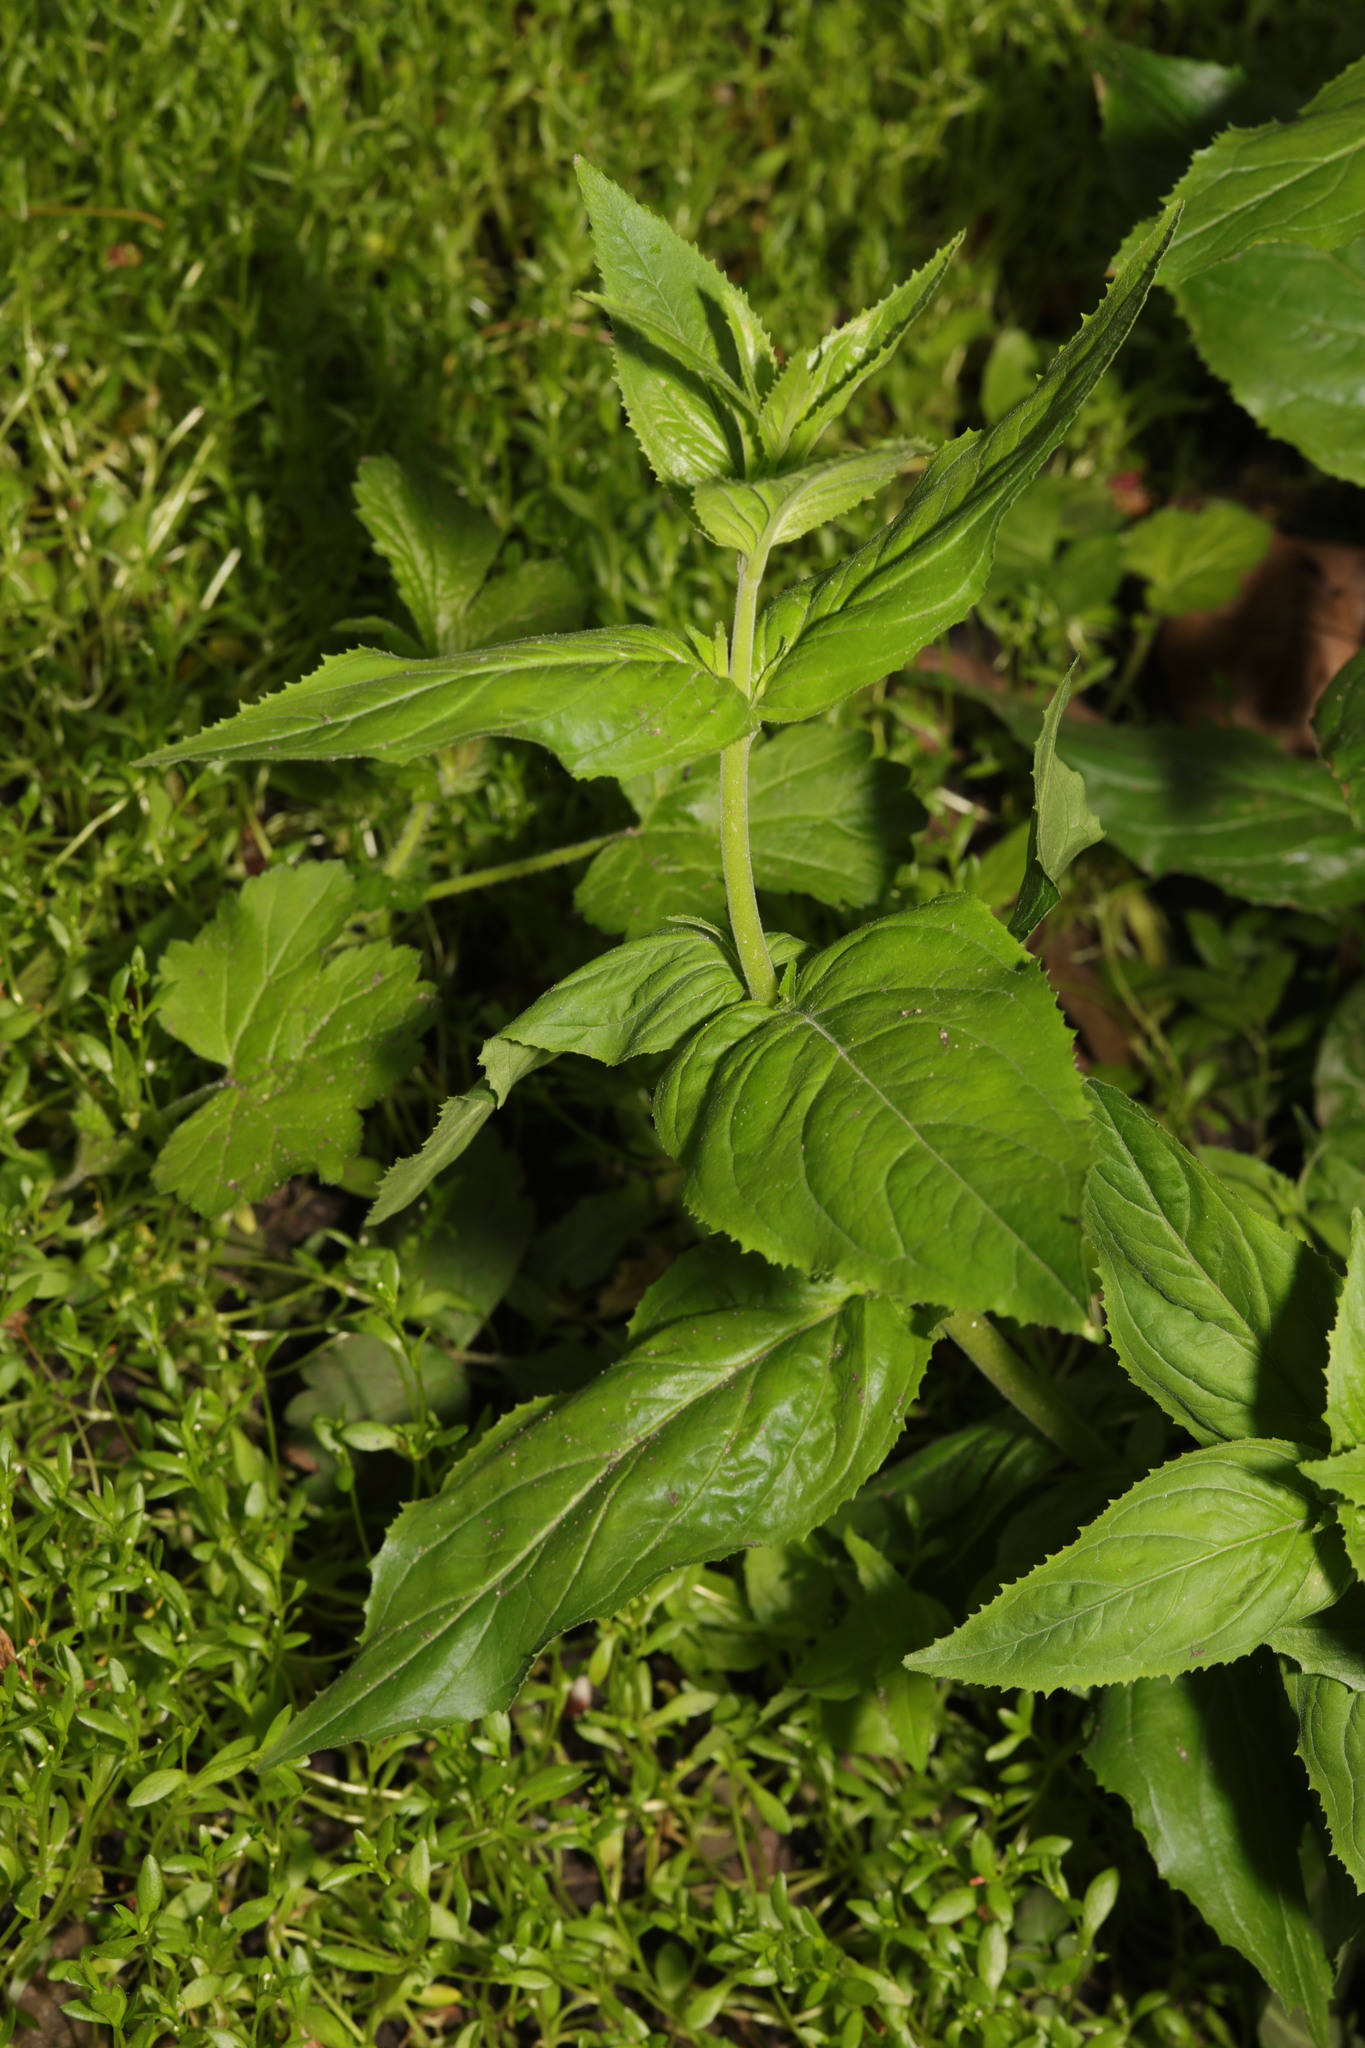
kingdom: Plantae
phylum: Tracheophyta
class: Magnoliopsida
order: Myrtales
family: Onagraceae
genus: Epilobium
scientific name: Epilobium montanum
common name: Broad-leaved willowherb
